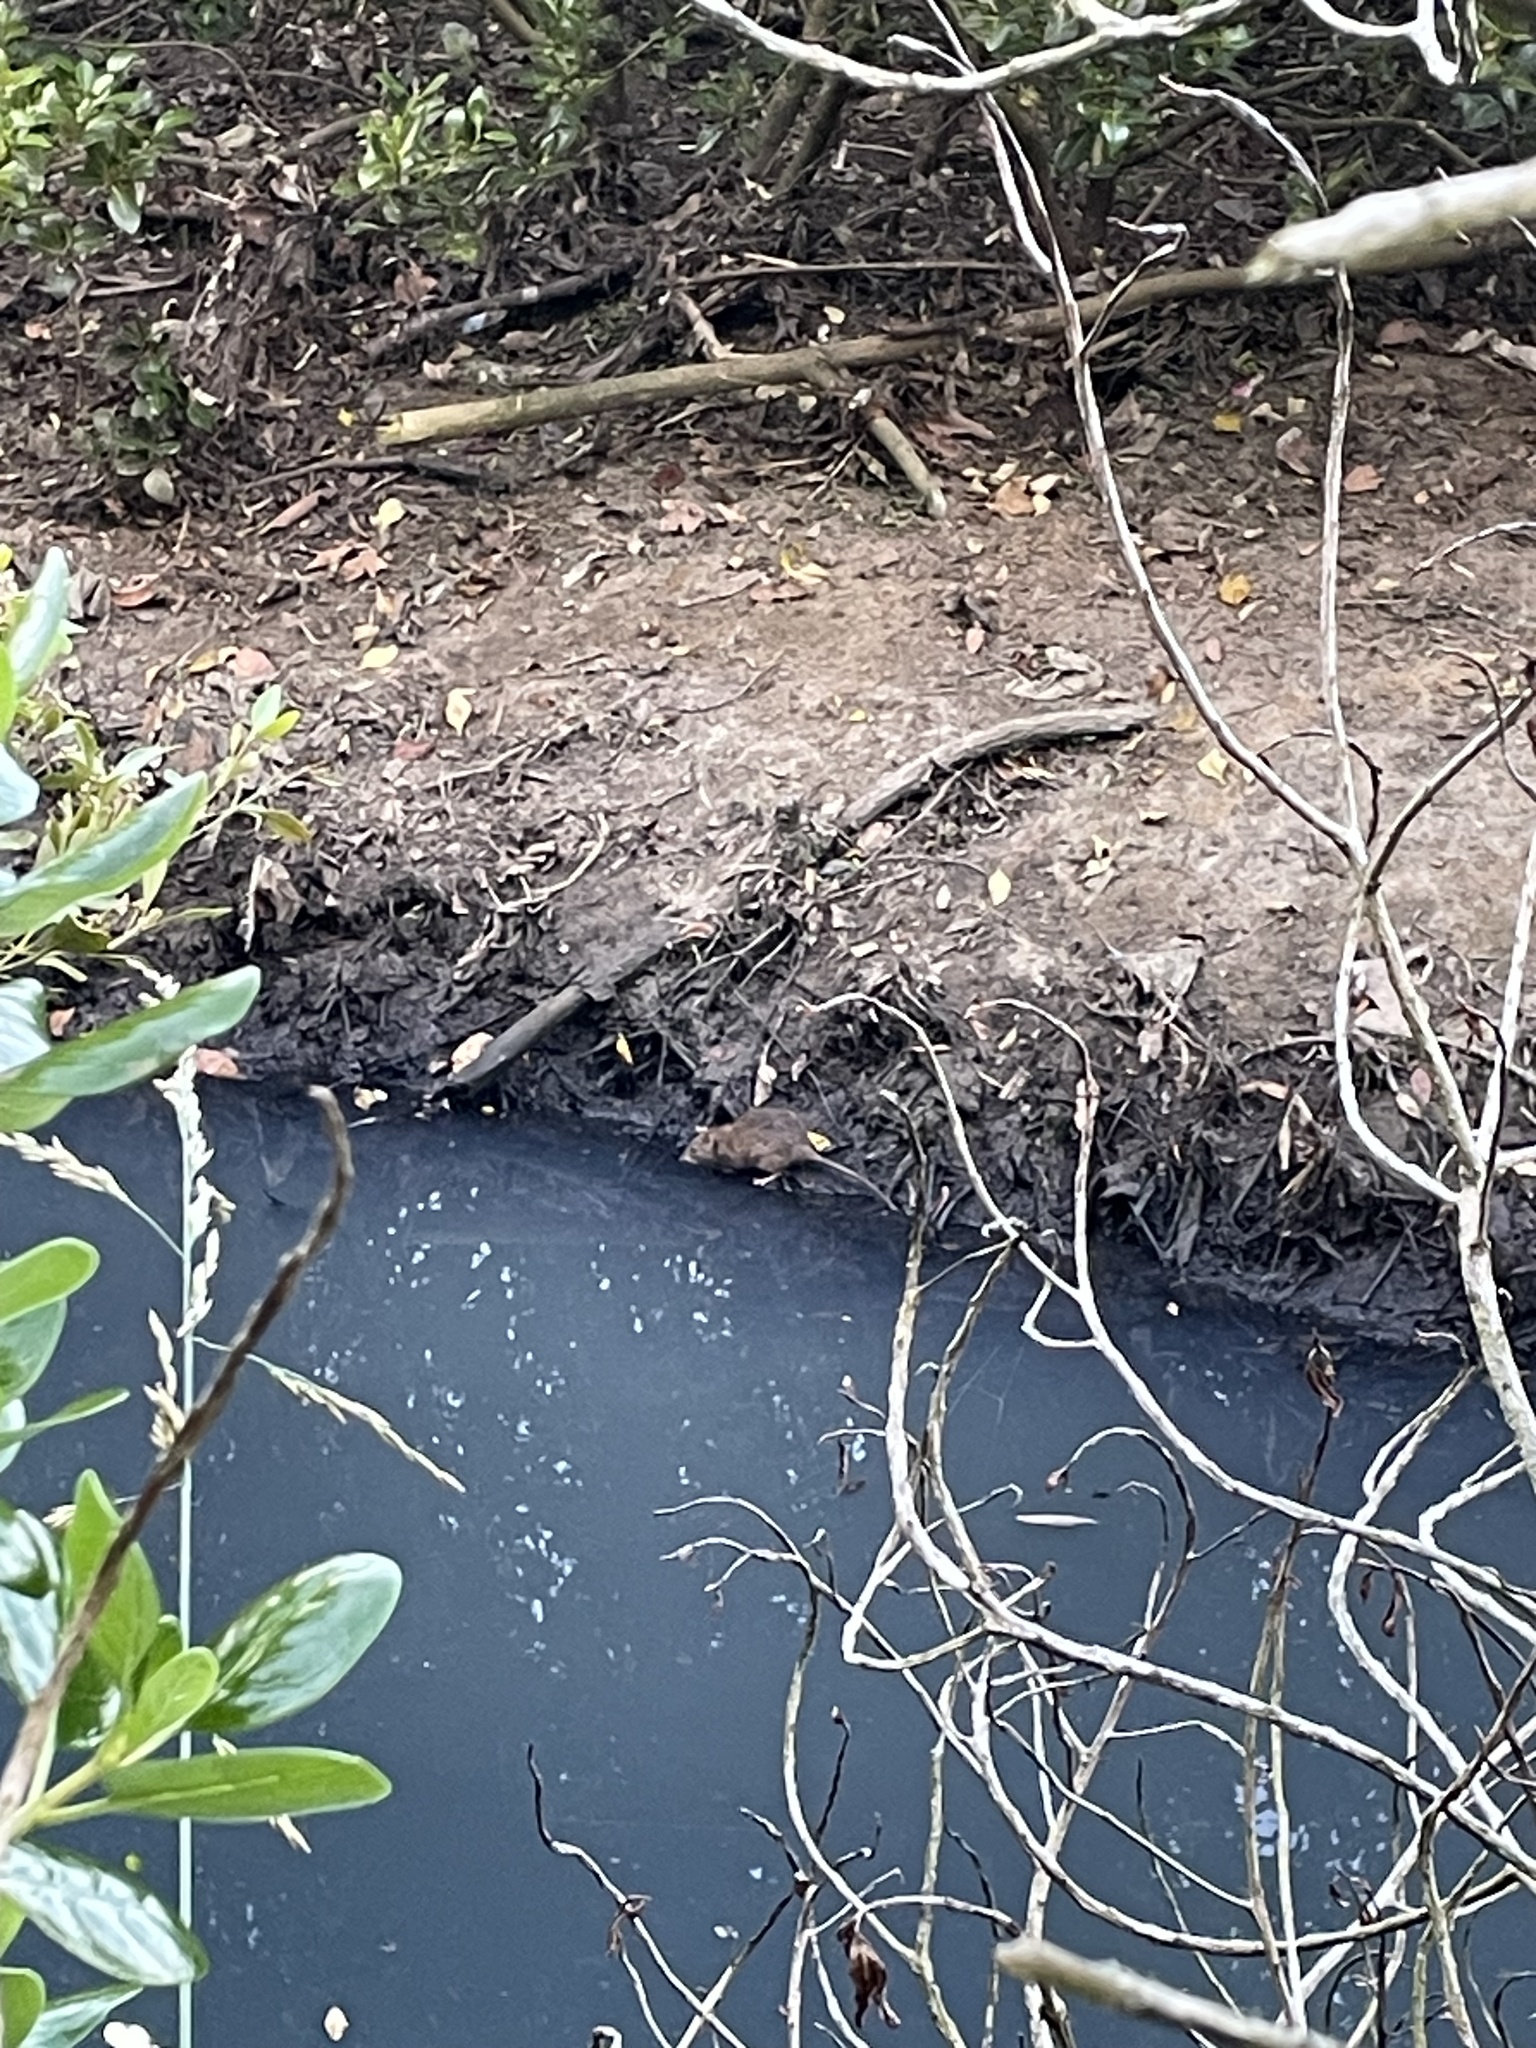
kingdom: Animalia
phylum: Chordata
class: Mammalia
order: Rodentia
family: Muridae
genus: Rattus
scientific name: Rattus norvegicus
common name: Brown rat
